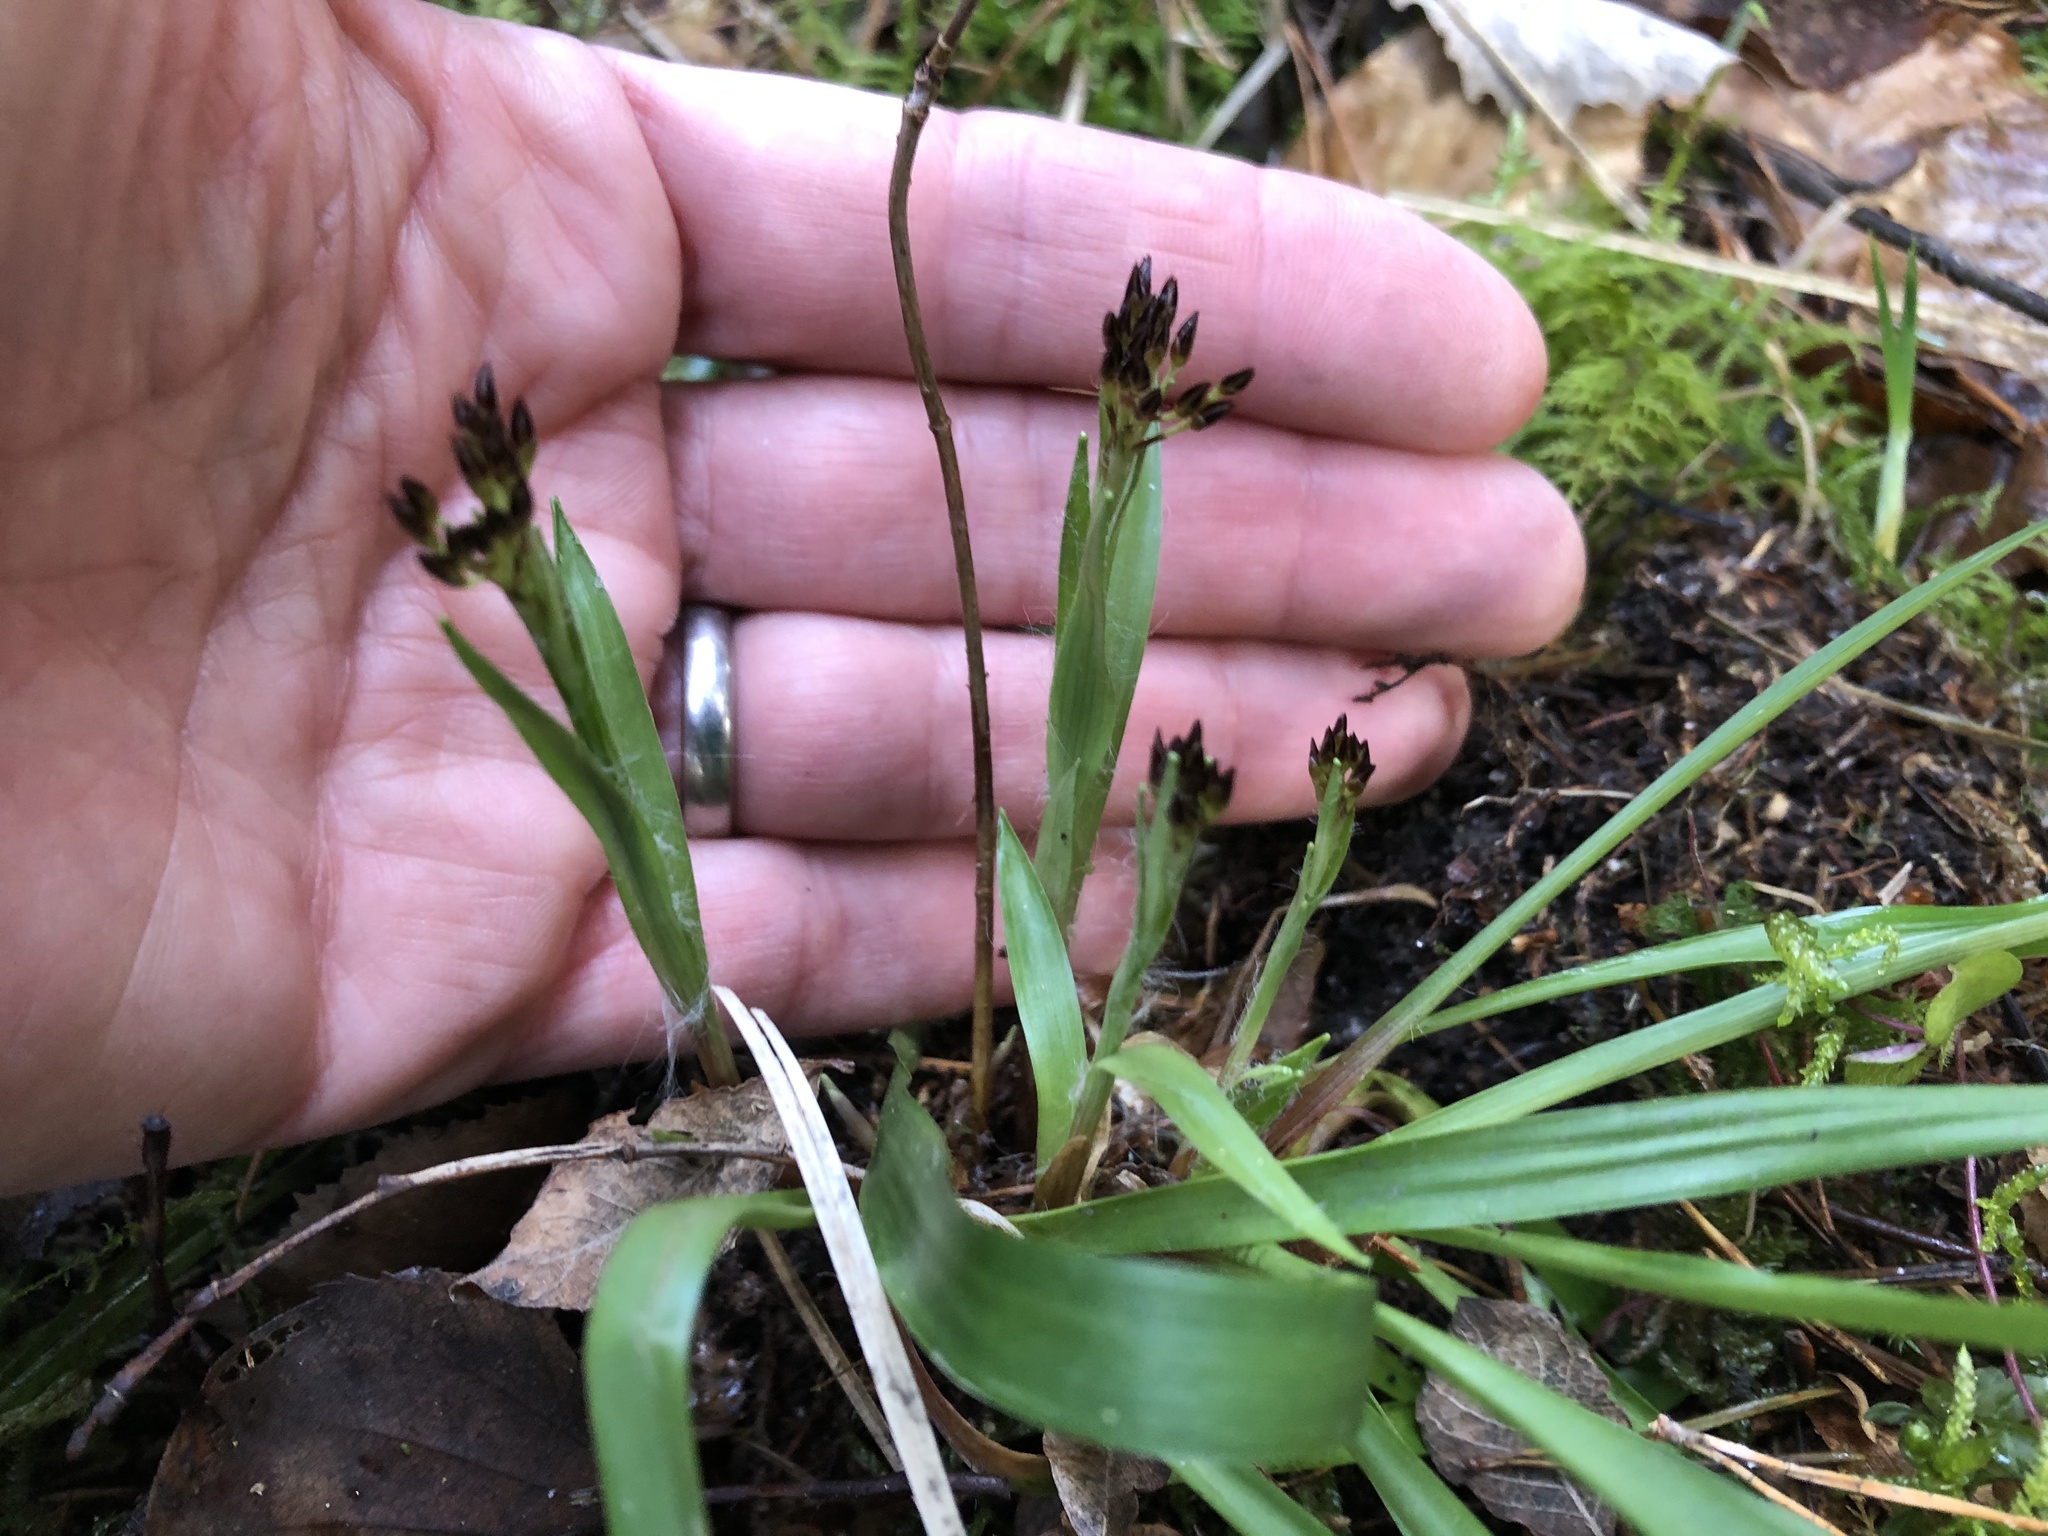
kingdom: Plantae
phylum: Tracheophyta
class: Liliopsida
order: Poales
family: Juncaceae
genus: Luzula
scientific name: Luzula pilosa
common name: Hairy wood-rush
